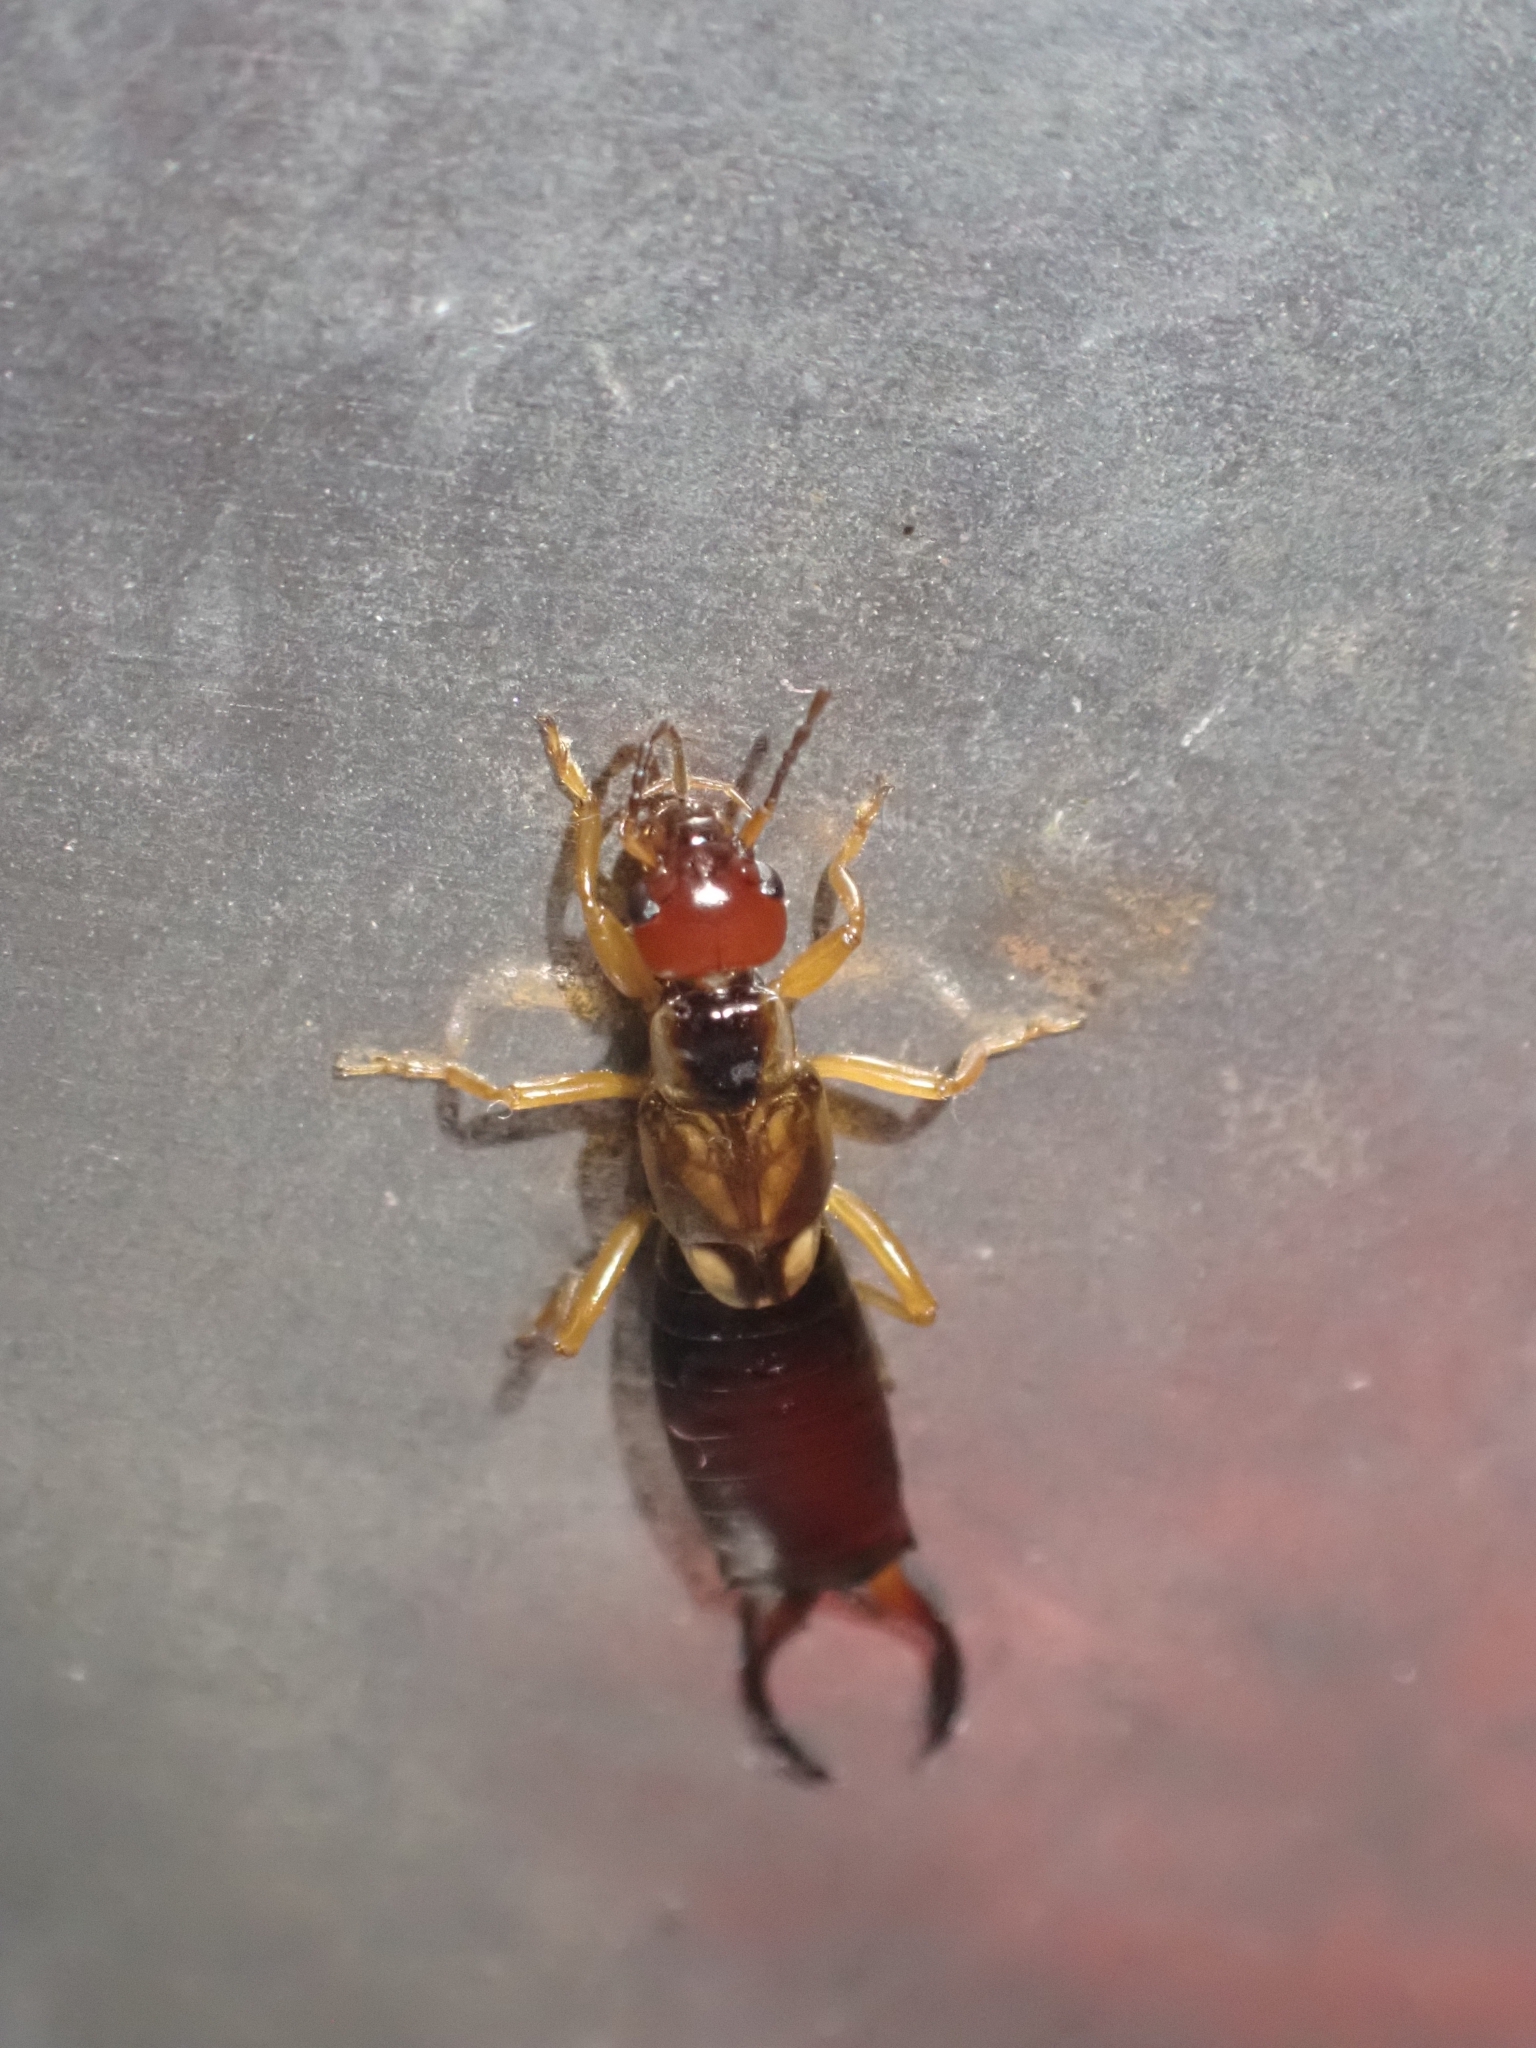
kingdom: Animalia
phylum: Arthropoda
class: Insecta
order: Dermaptera
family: Forficulidae
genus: Forficula
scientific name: Forficula
